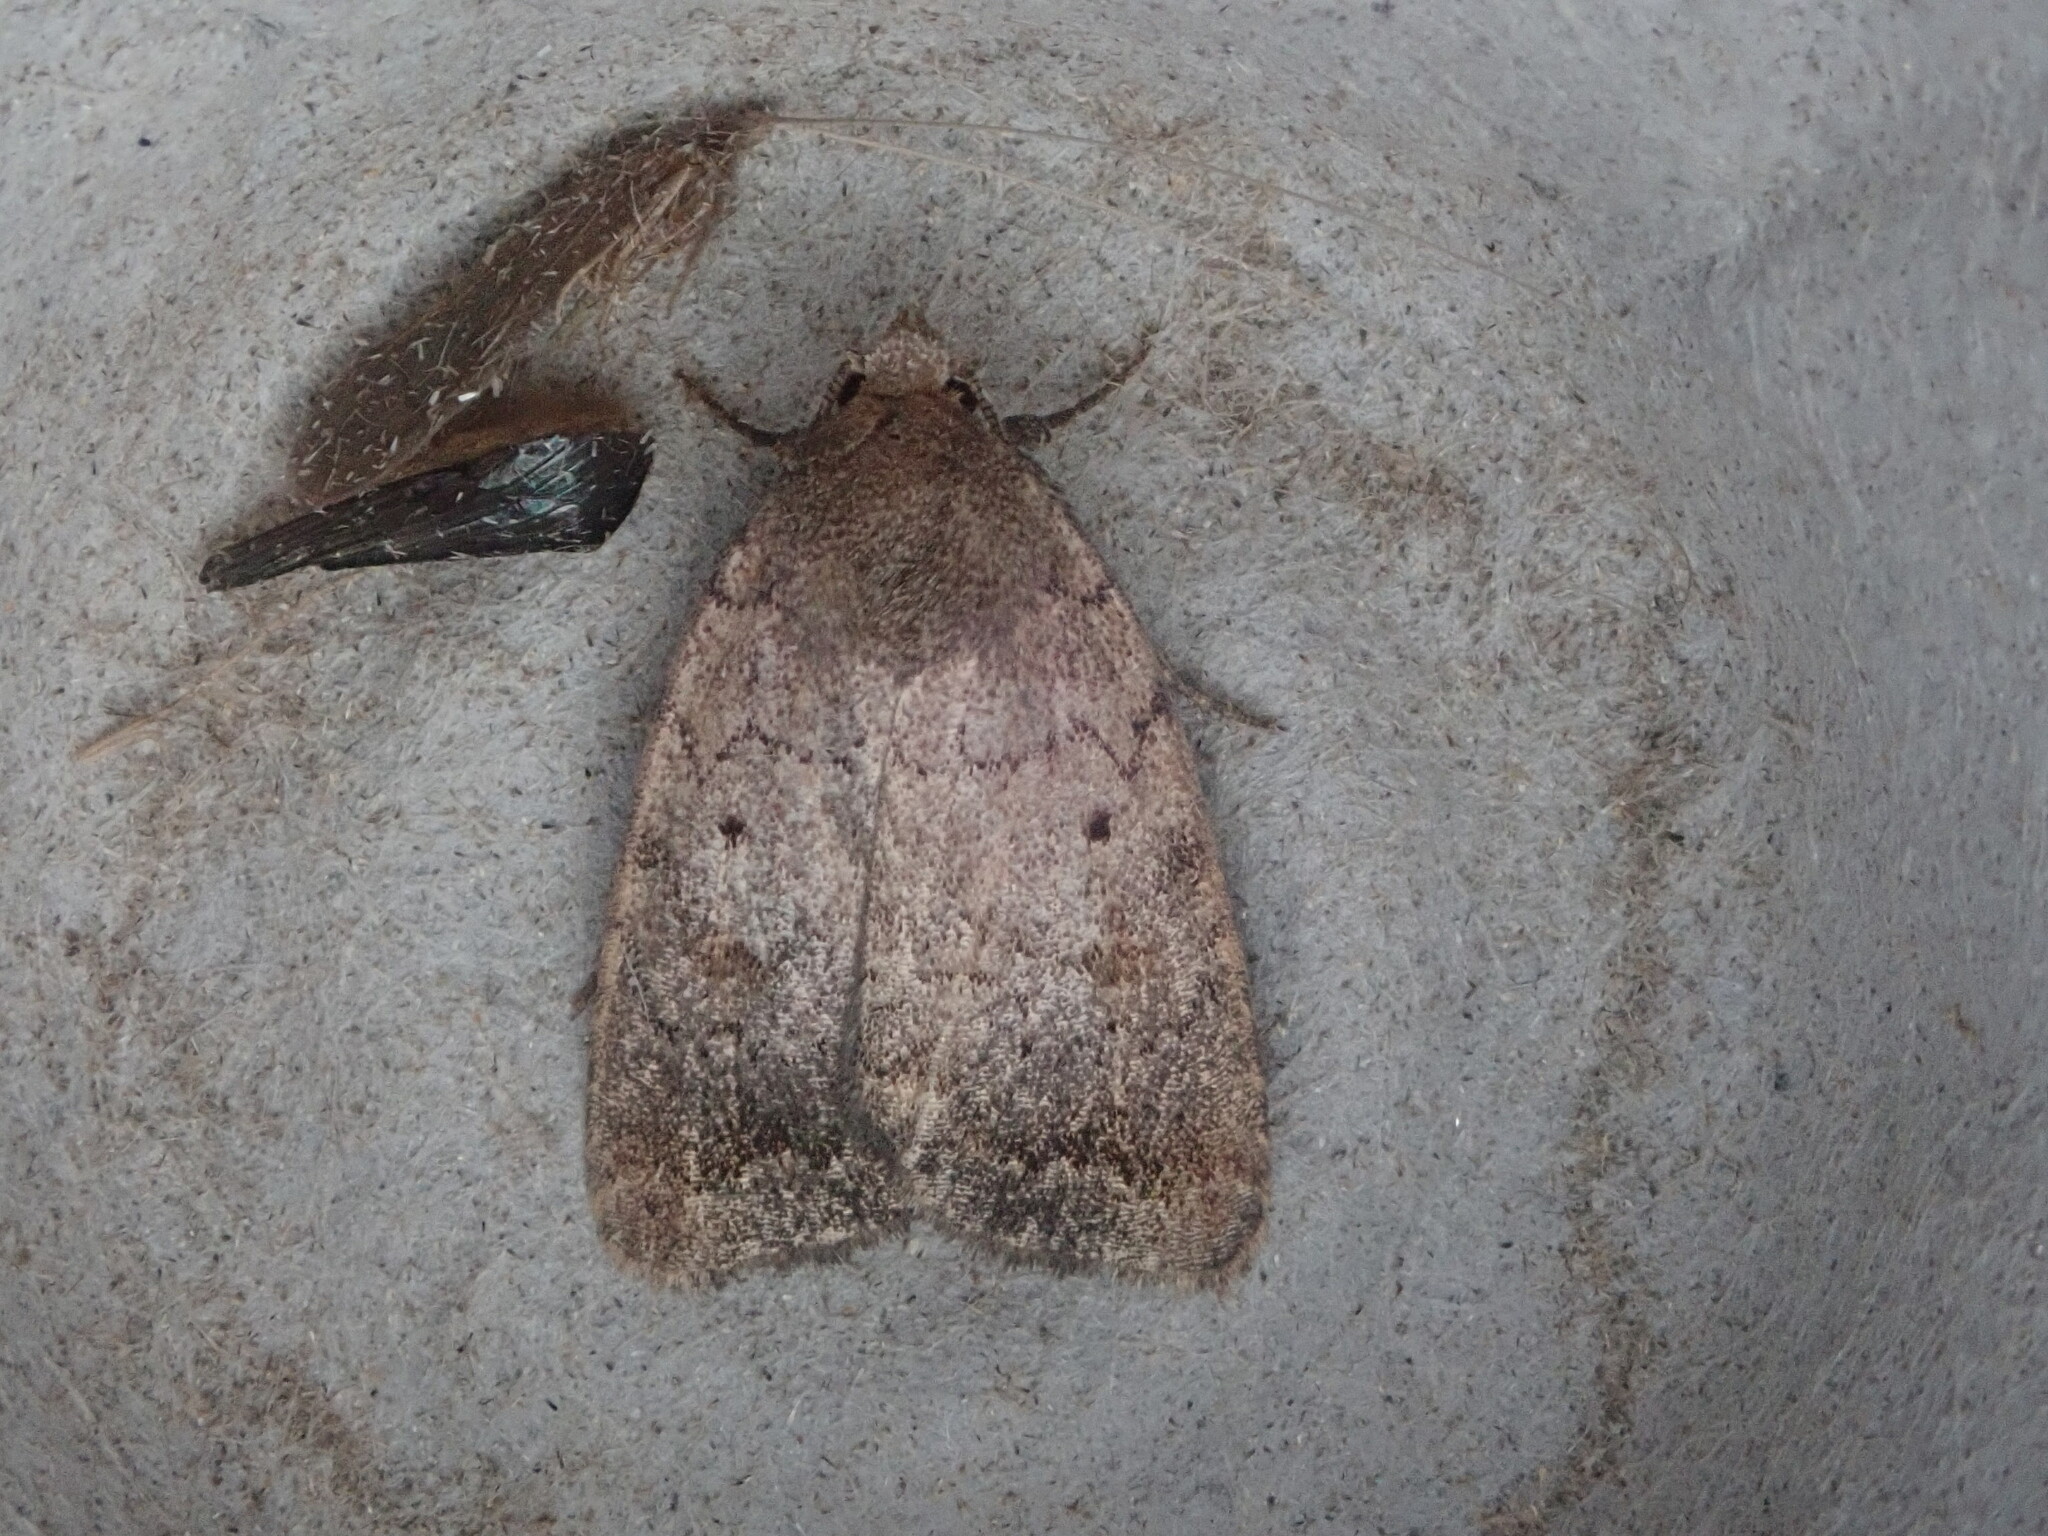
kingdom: Animalia
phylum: Arthropoda
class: Insecta
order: Lepidoptera
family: Noctuidae
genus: Athetis
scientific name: Athetis tarda
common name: Slowpoke moth
